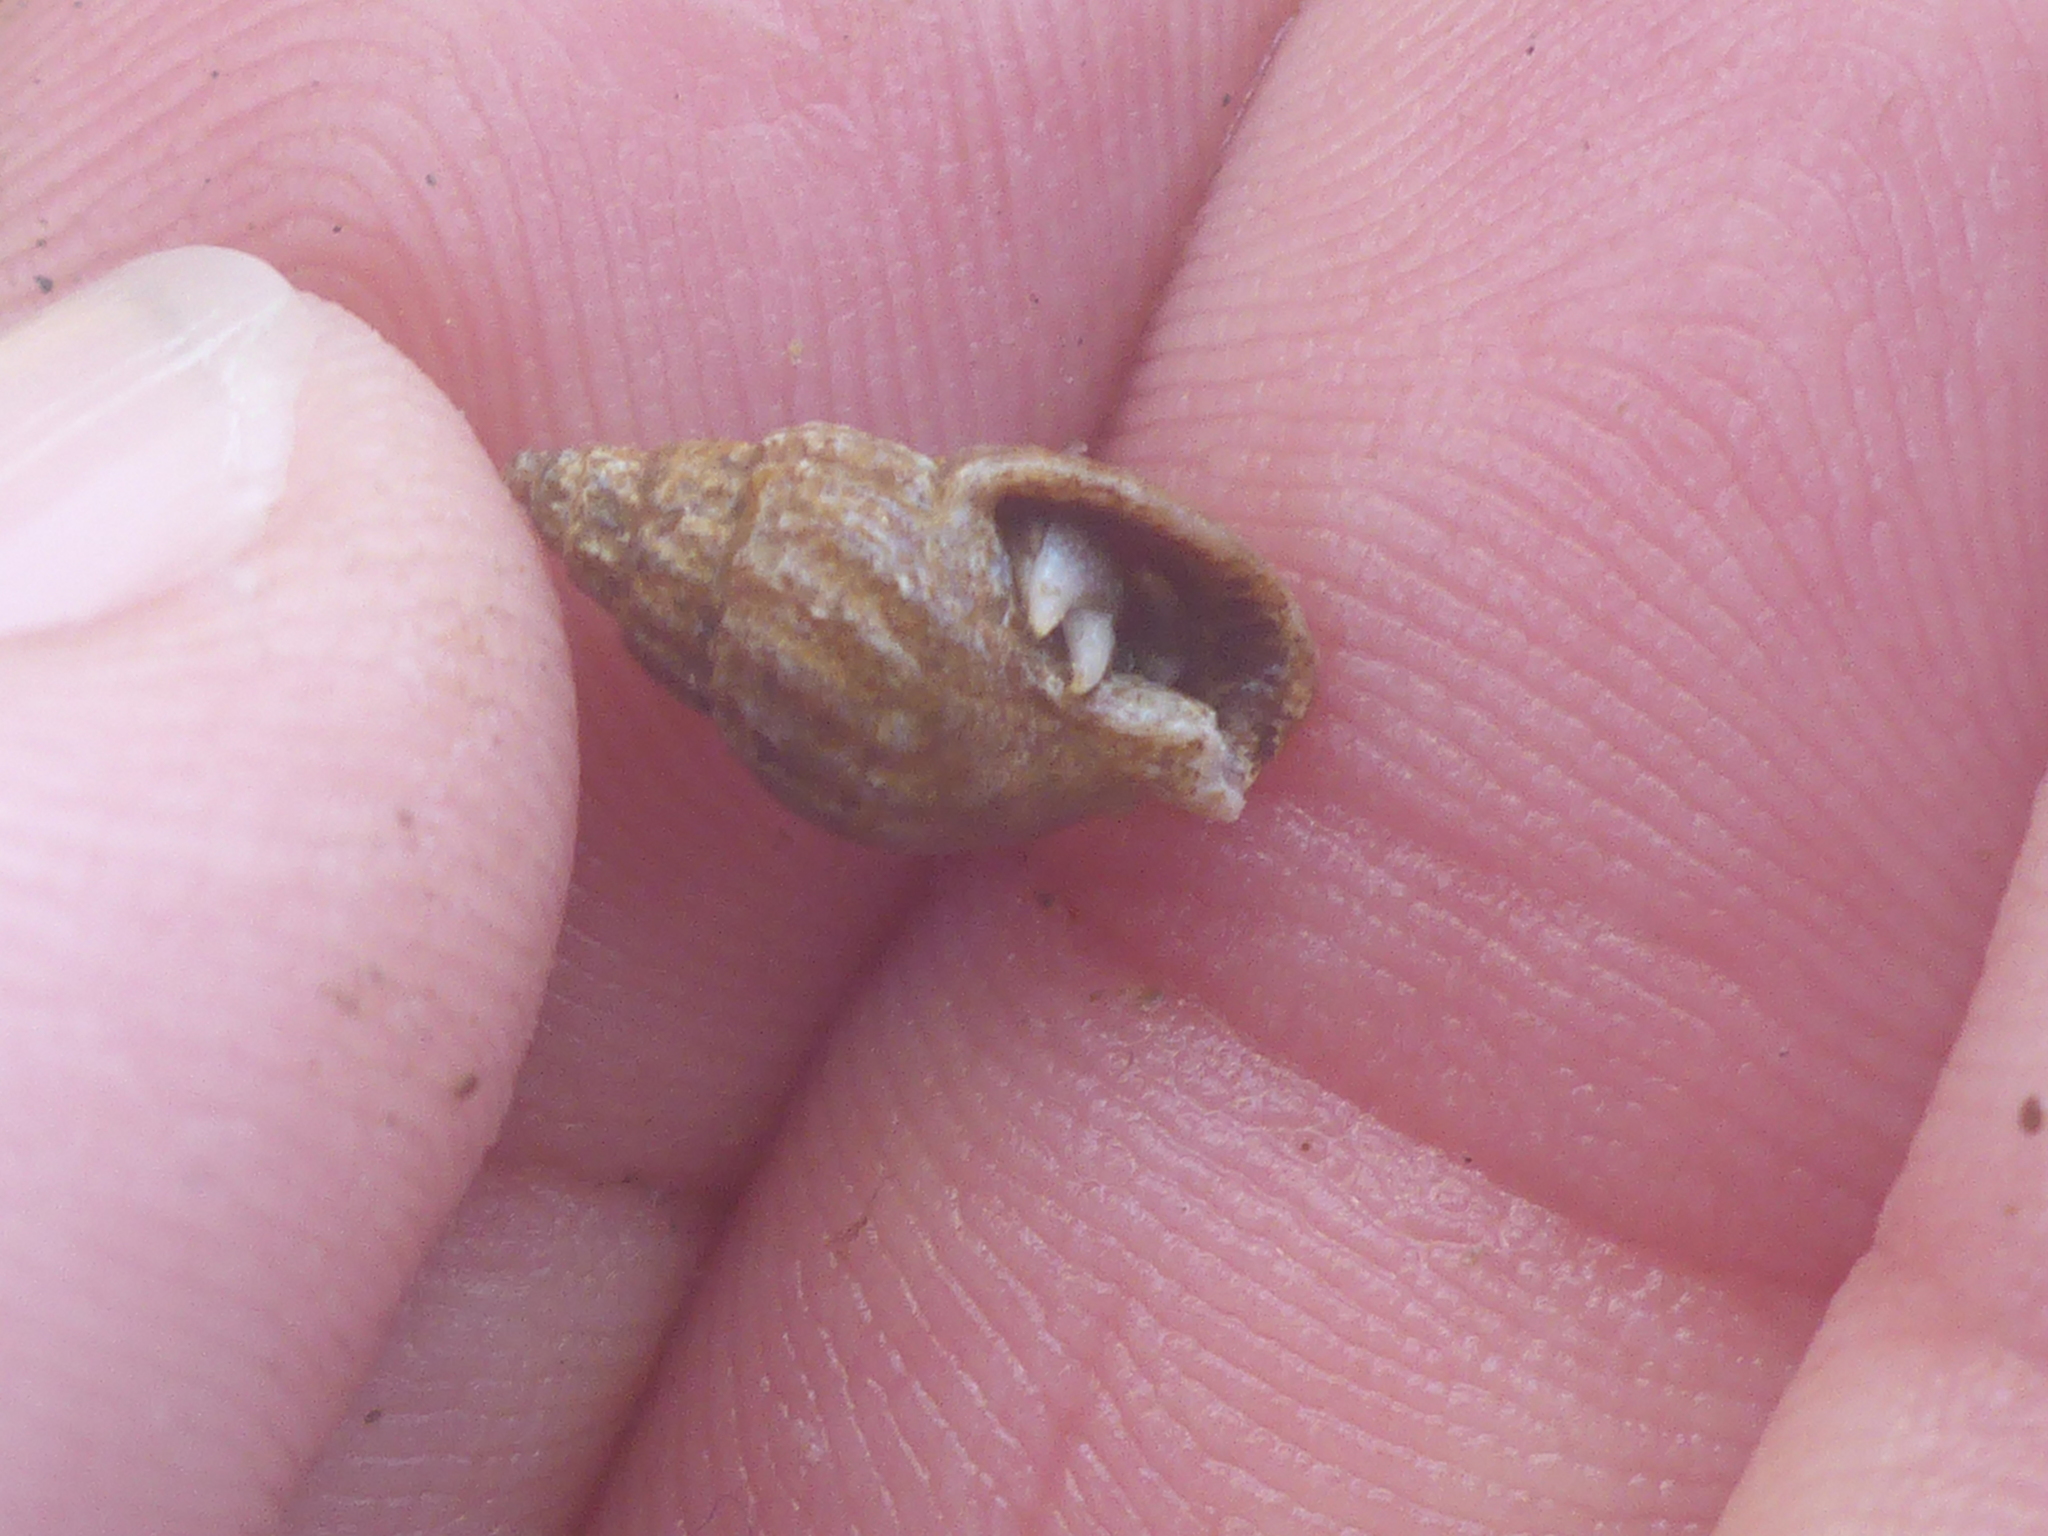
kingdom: Animalia
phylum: Arthropoda
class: Malacostraca
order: Decapoda
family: Paguridae
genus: Pagurus
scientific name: Pagurus
